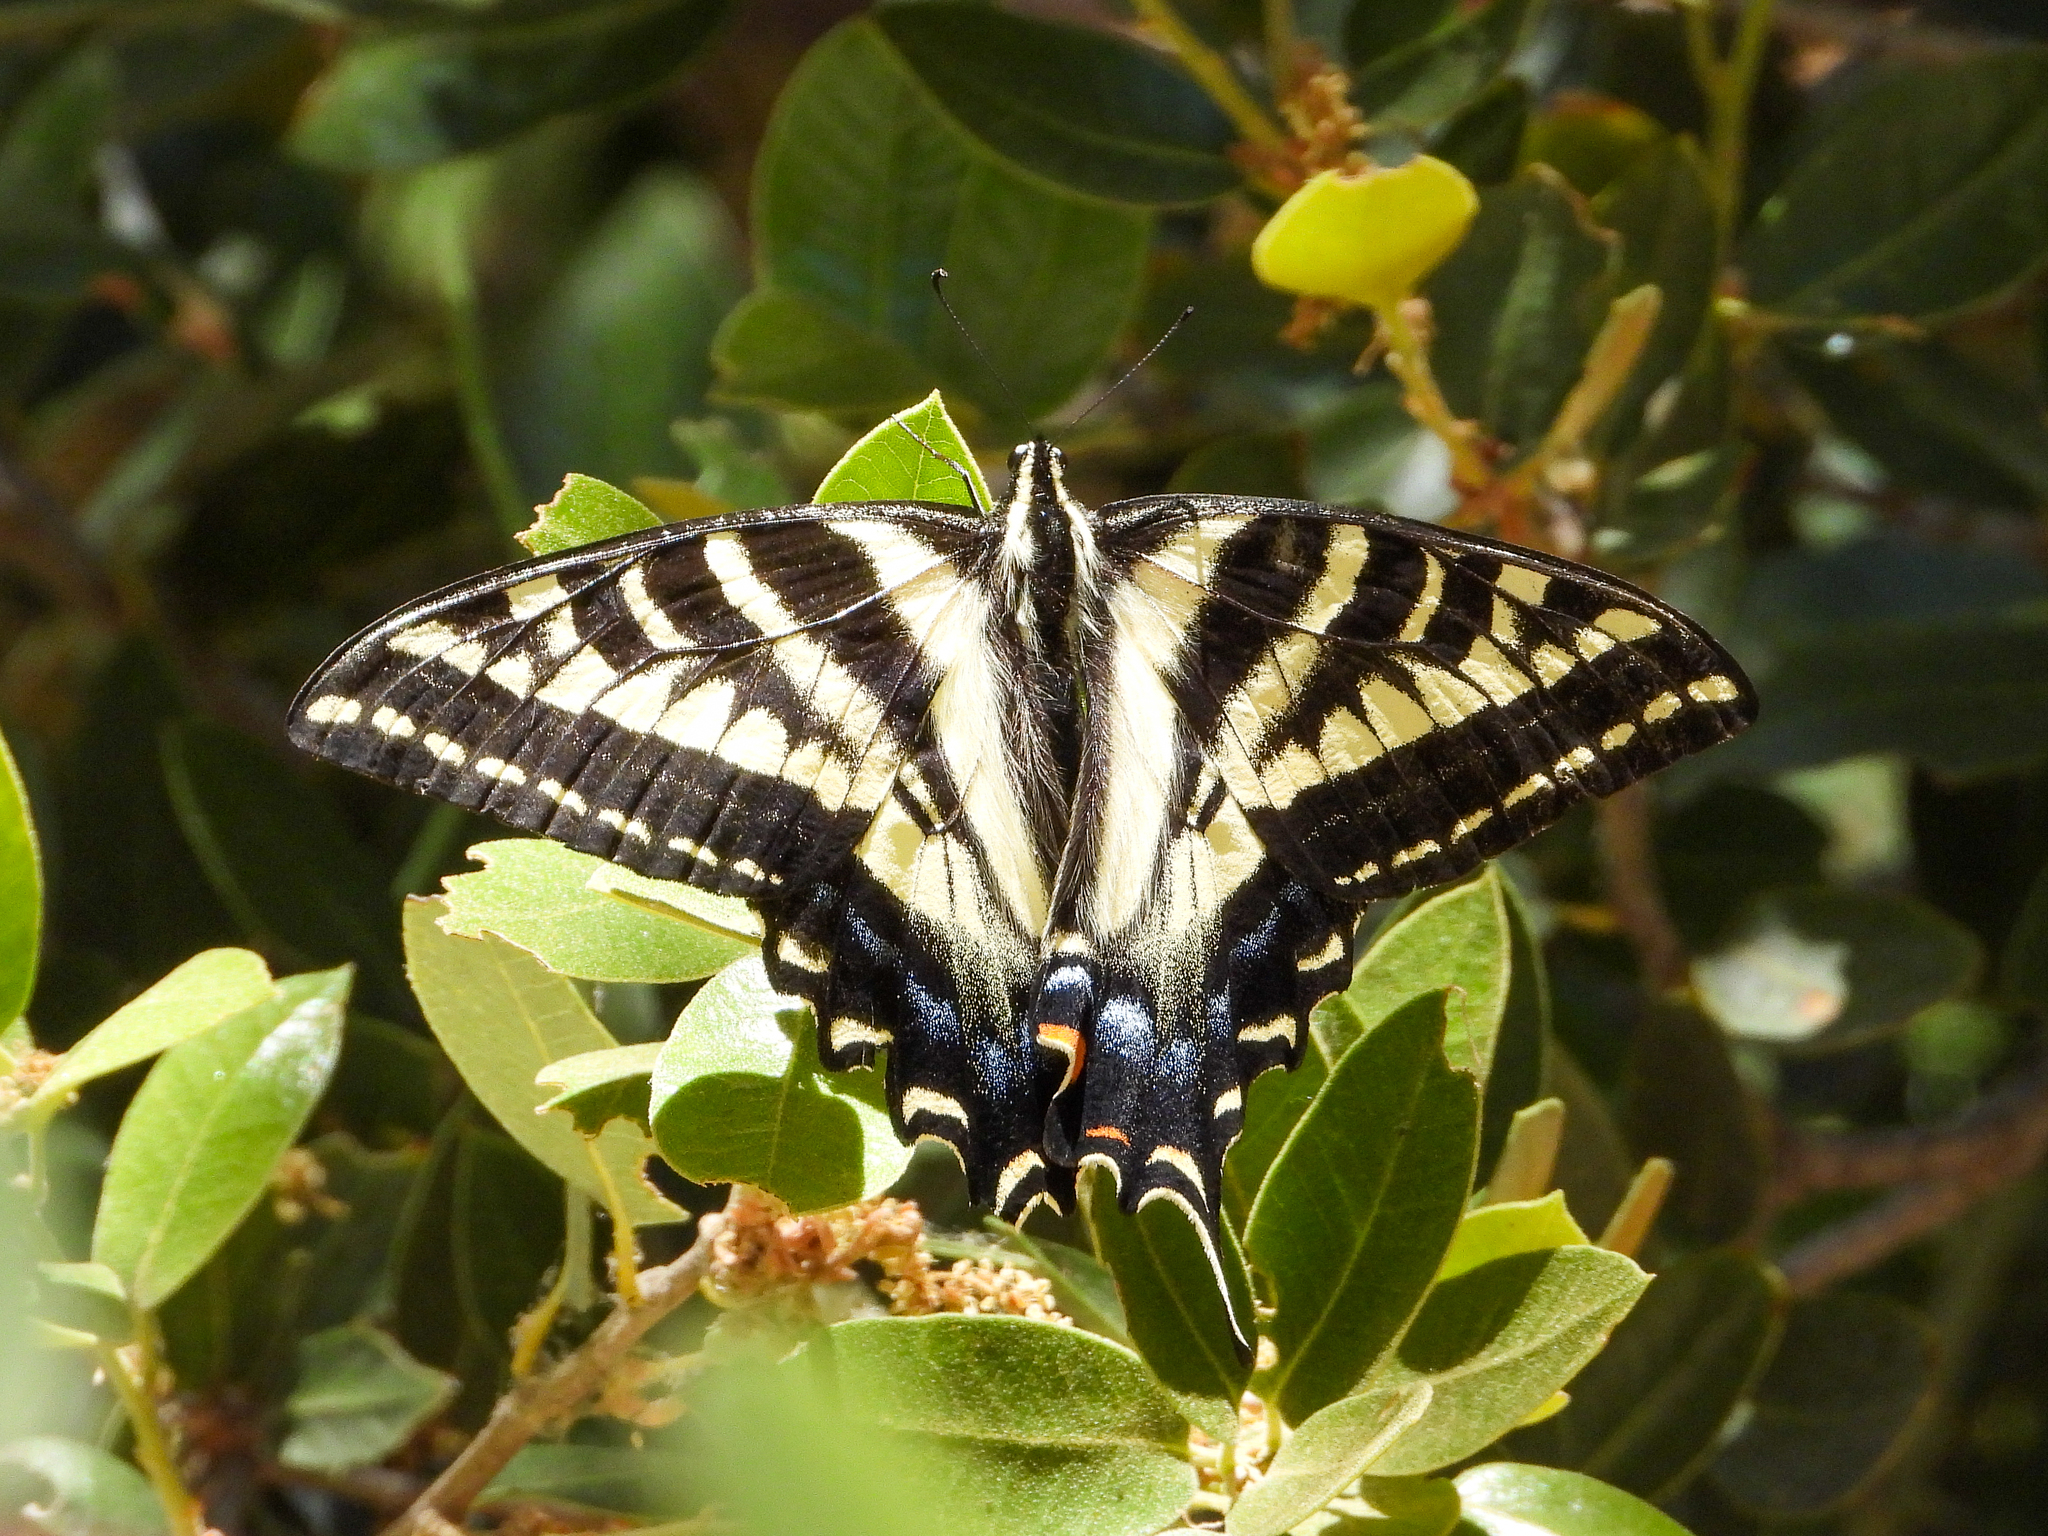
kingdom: Animalia
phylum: Arthropoda
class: Insecta
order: Lepidoptera
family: Papilionidae
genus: Papilio
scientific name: Papilio eurymedon
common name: Pale tiger swallowtail
